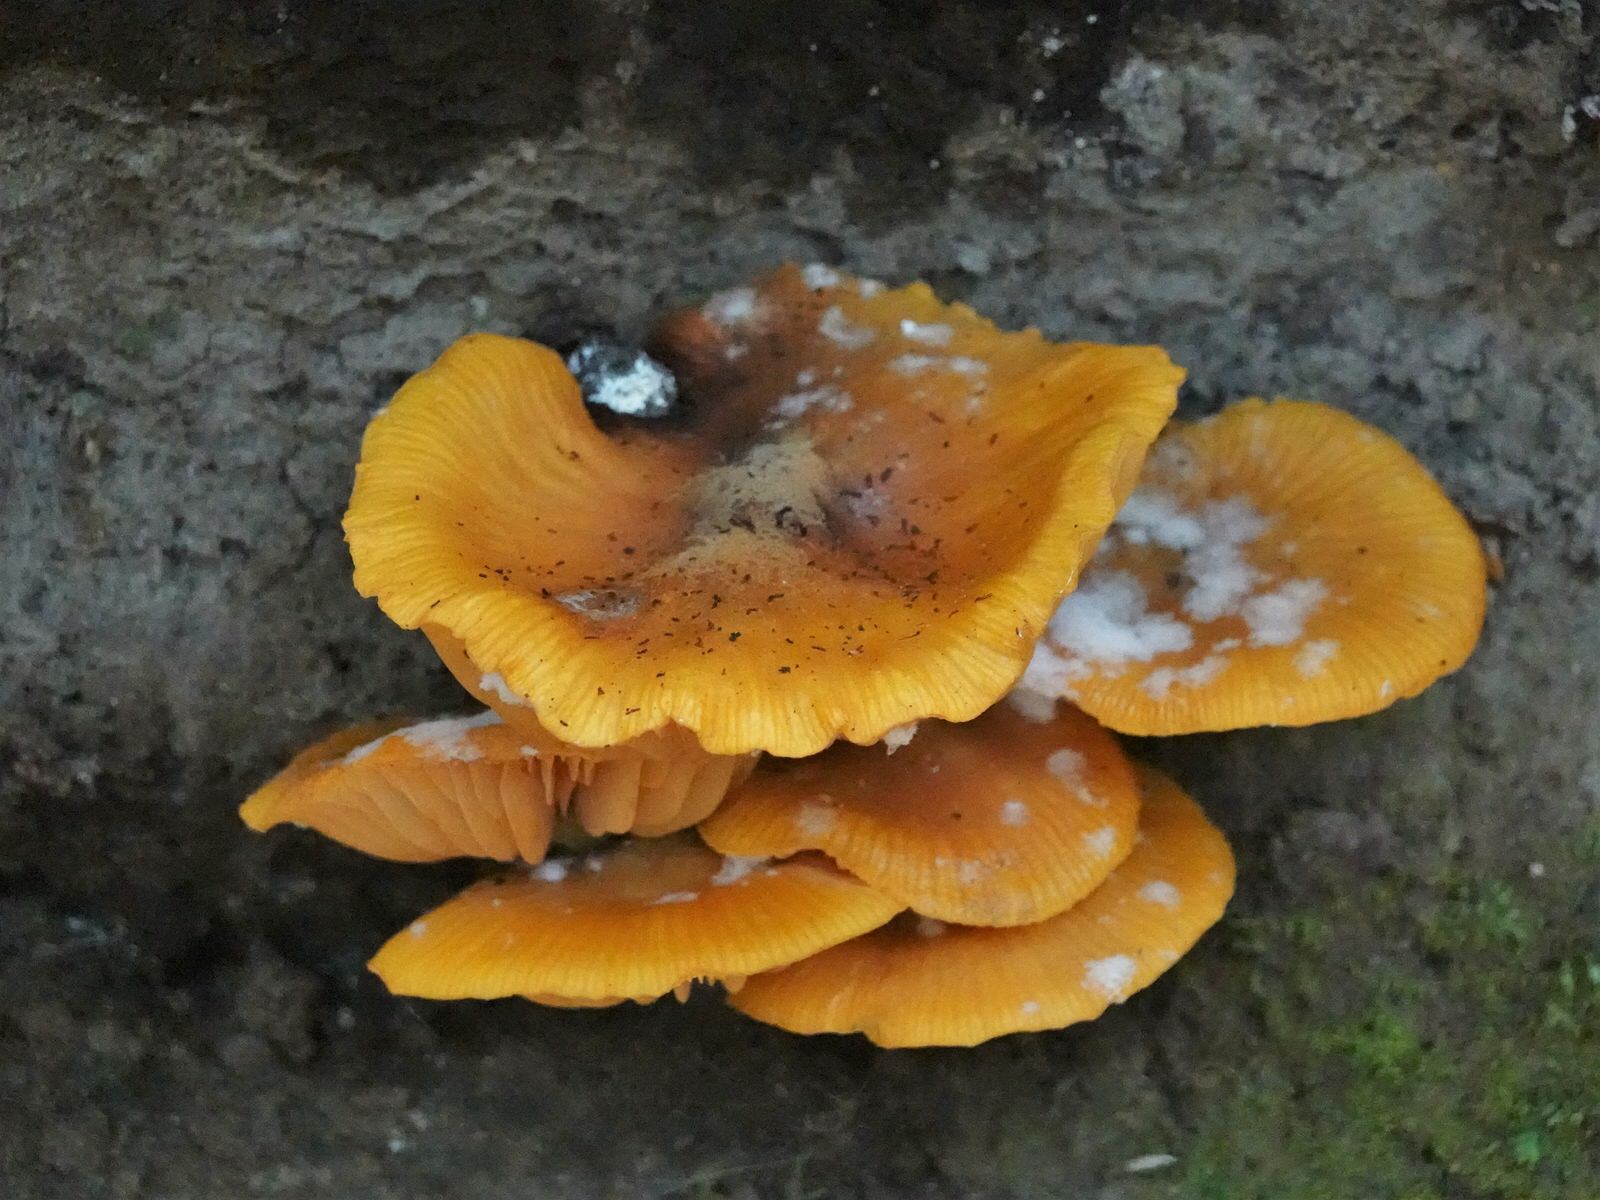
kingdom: Fungi
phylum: Basidiomycota
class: Agaricomycetes
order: Agaricales
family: Mycenaceae
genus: Heimiomyces
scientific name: Heimiomyces velutipes
